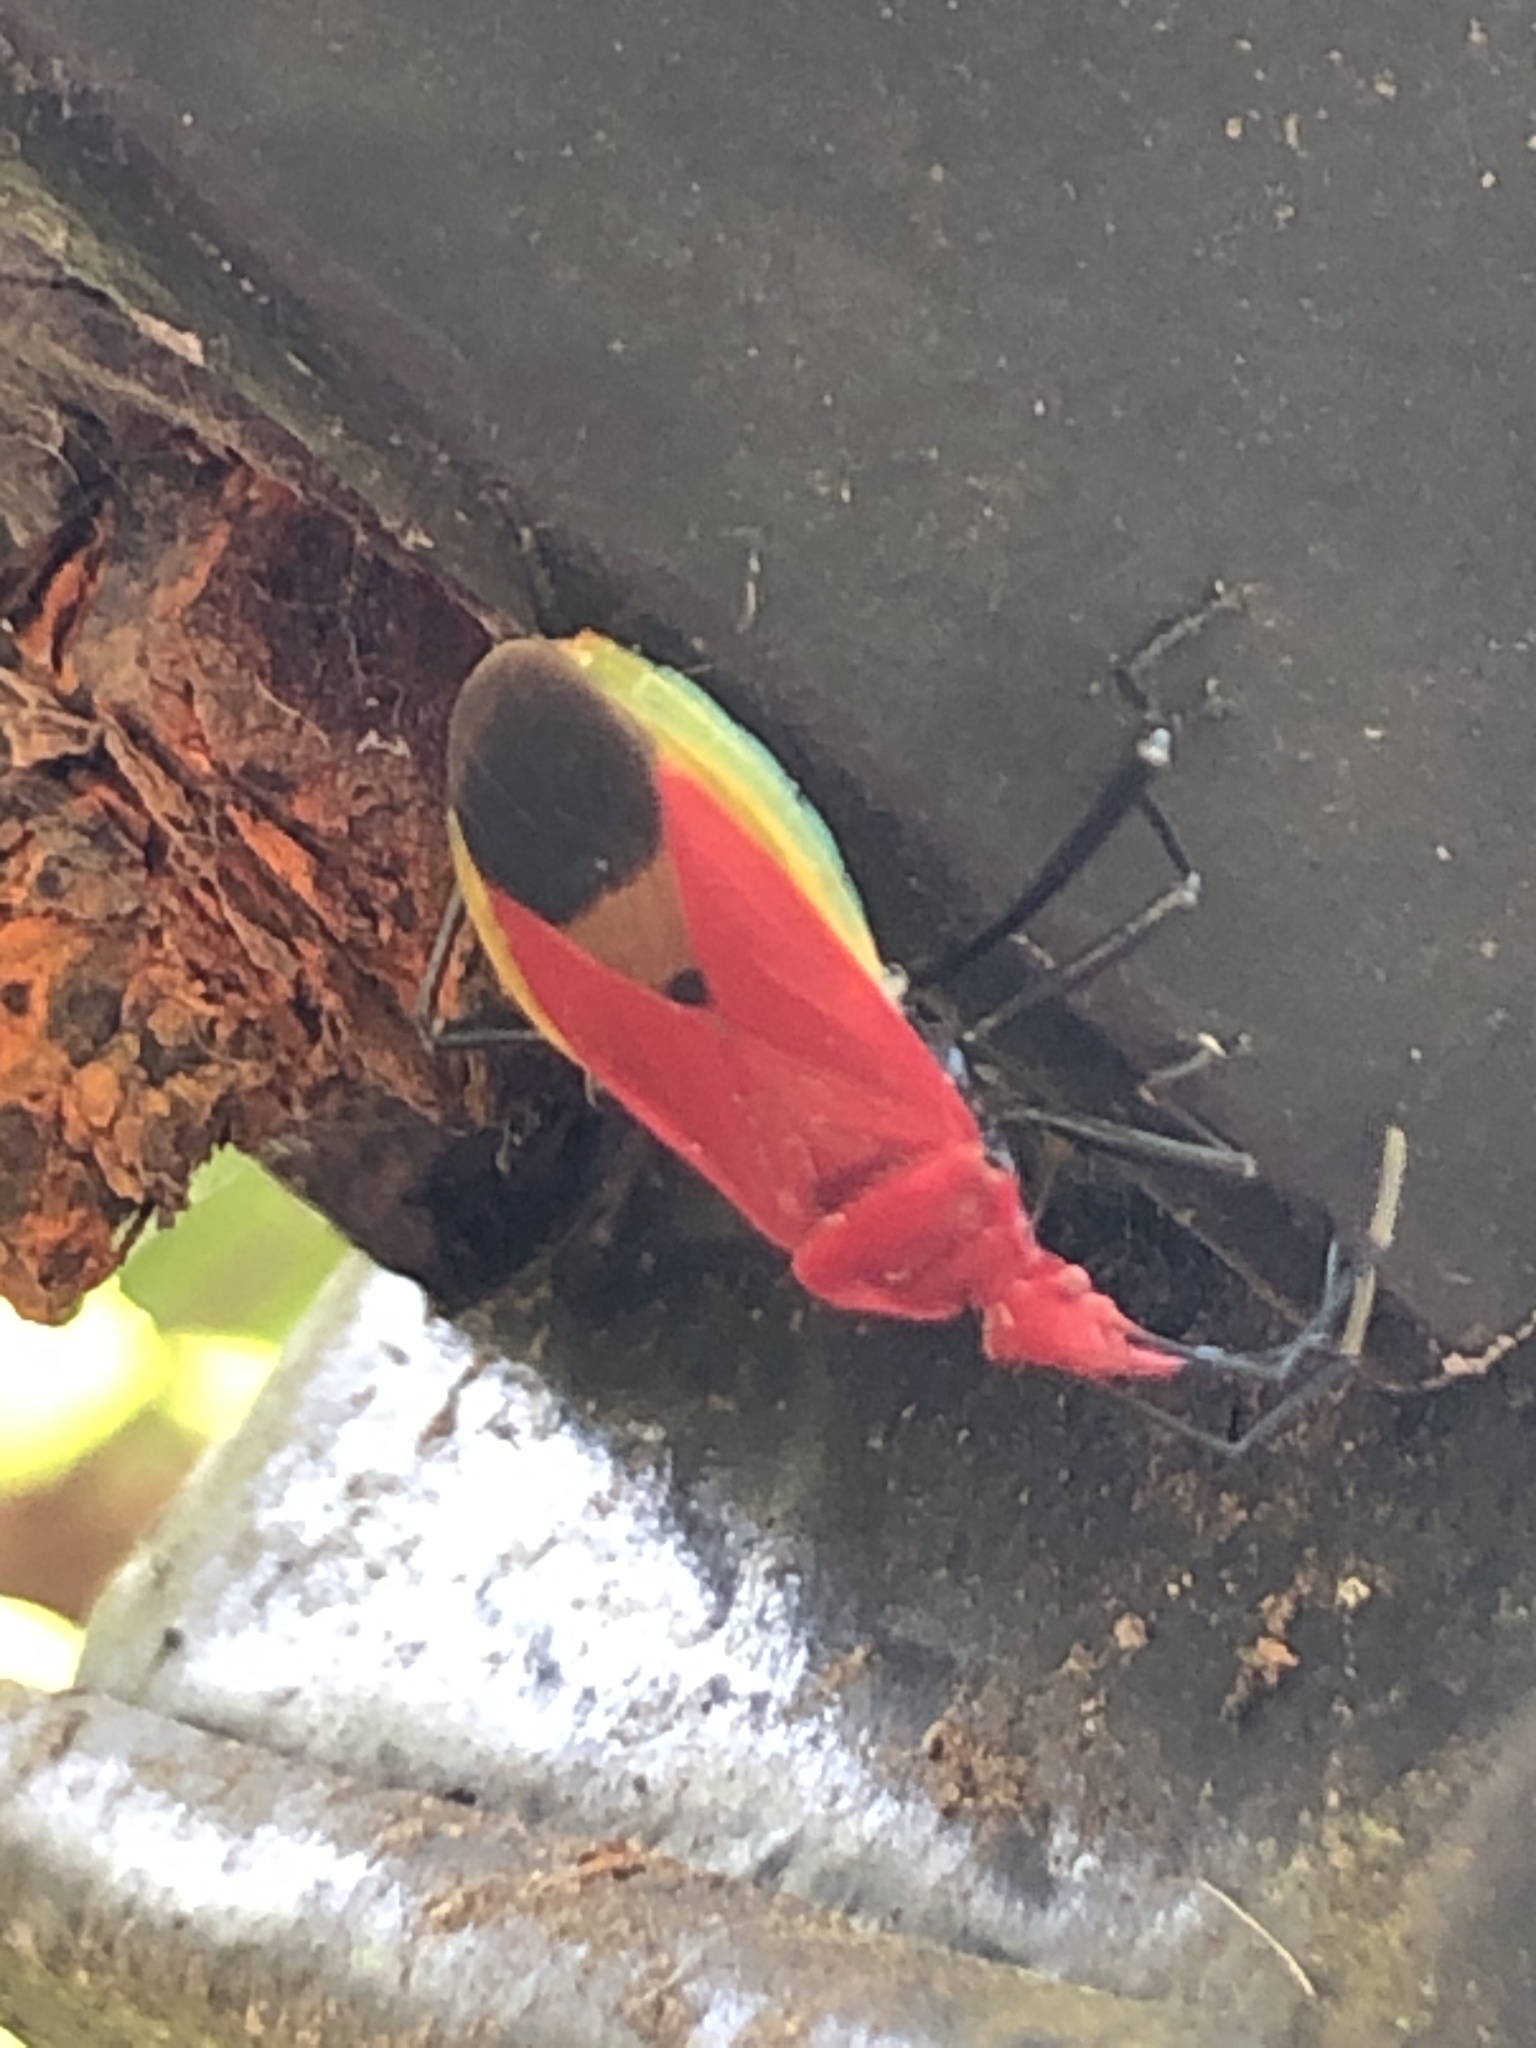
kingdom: Animalia
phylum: Arthropoda
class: Insecta
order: Hemiptera
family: Pyrrhocoridae
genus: Dindymus
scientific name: Dindymus
